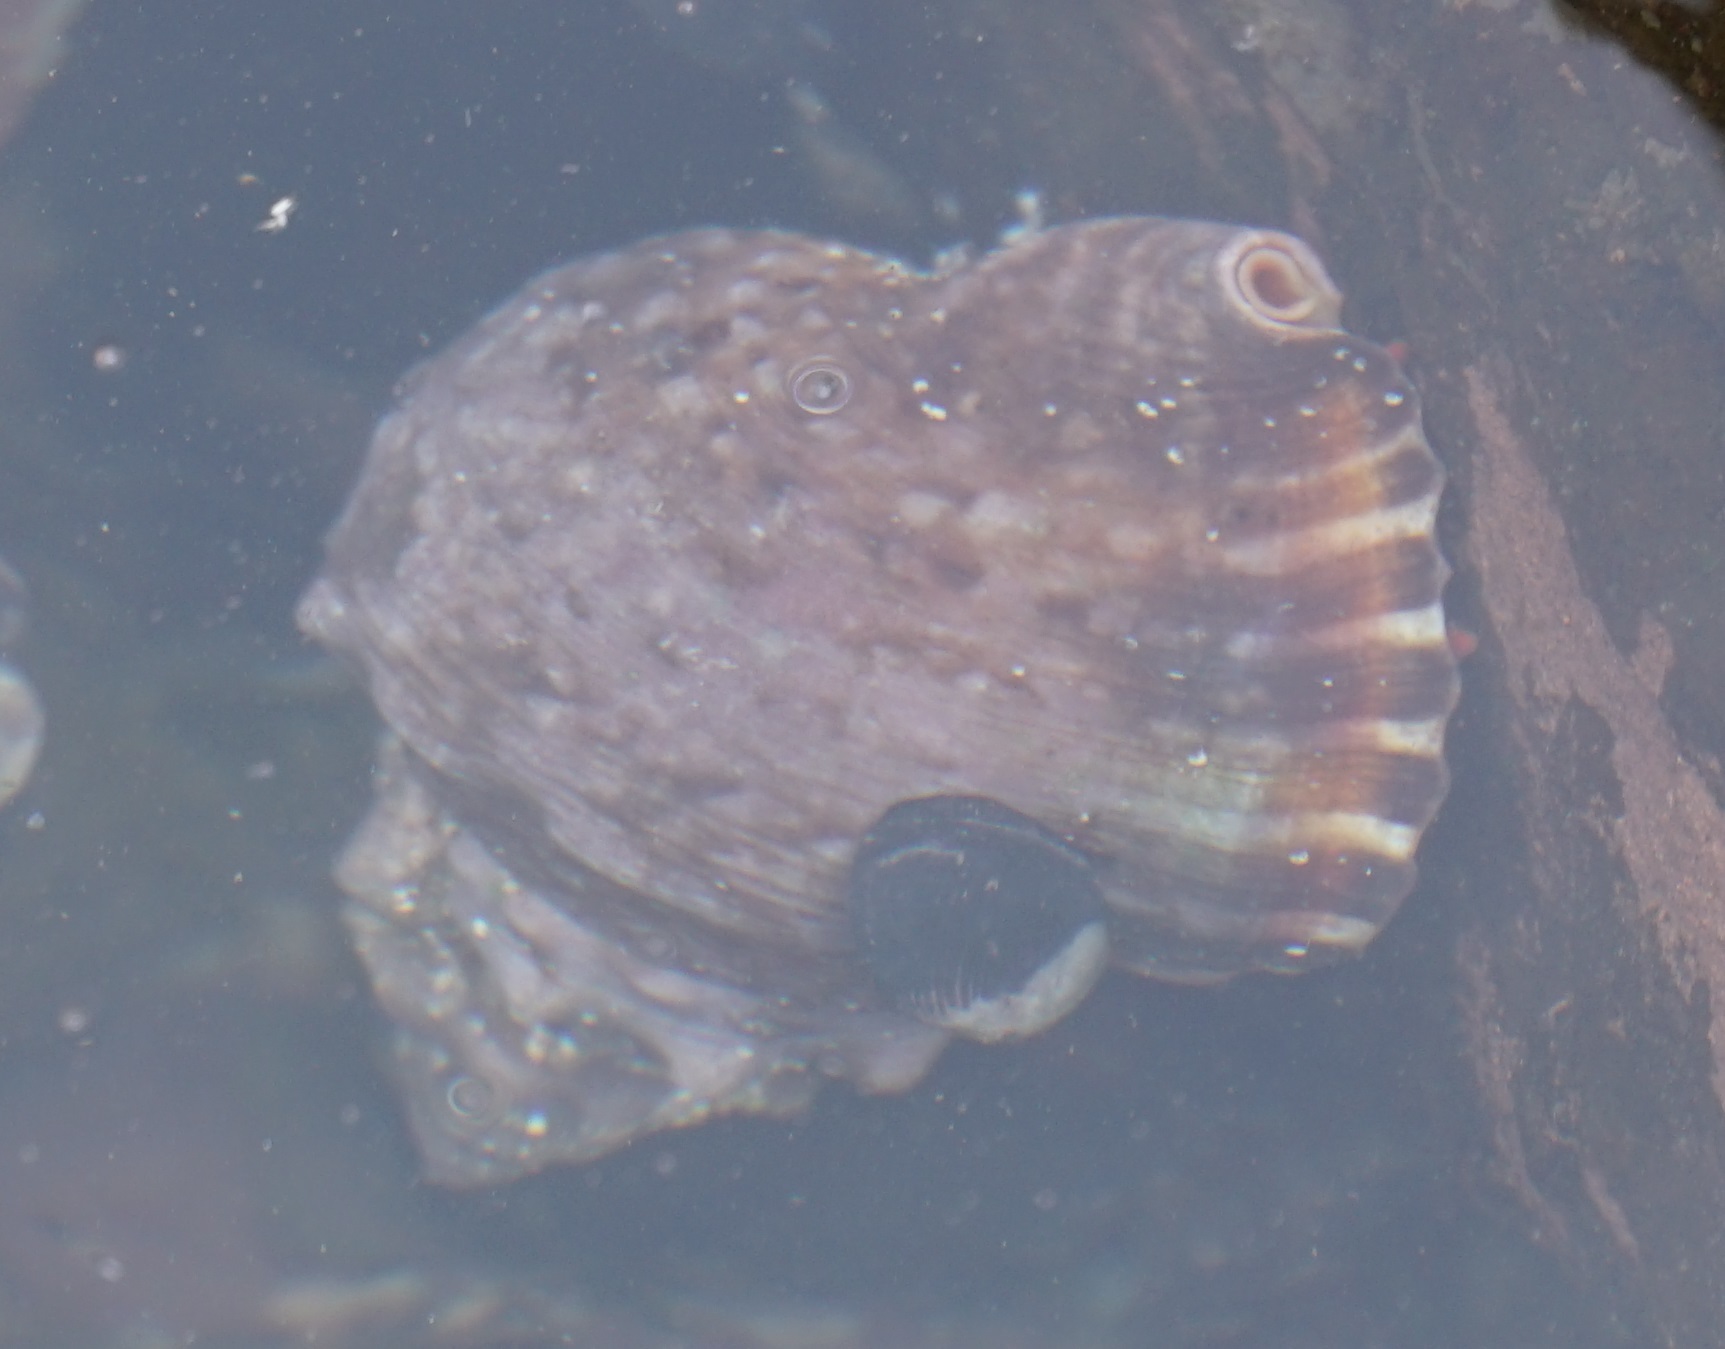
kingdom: Animalia
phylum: Mollusca
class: Gastropoda
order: Littorinimorpha
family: Charoniidae
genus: Charonia
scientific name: Charonia lampas
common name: Knobbed triton
